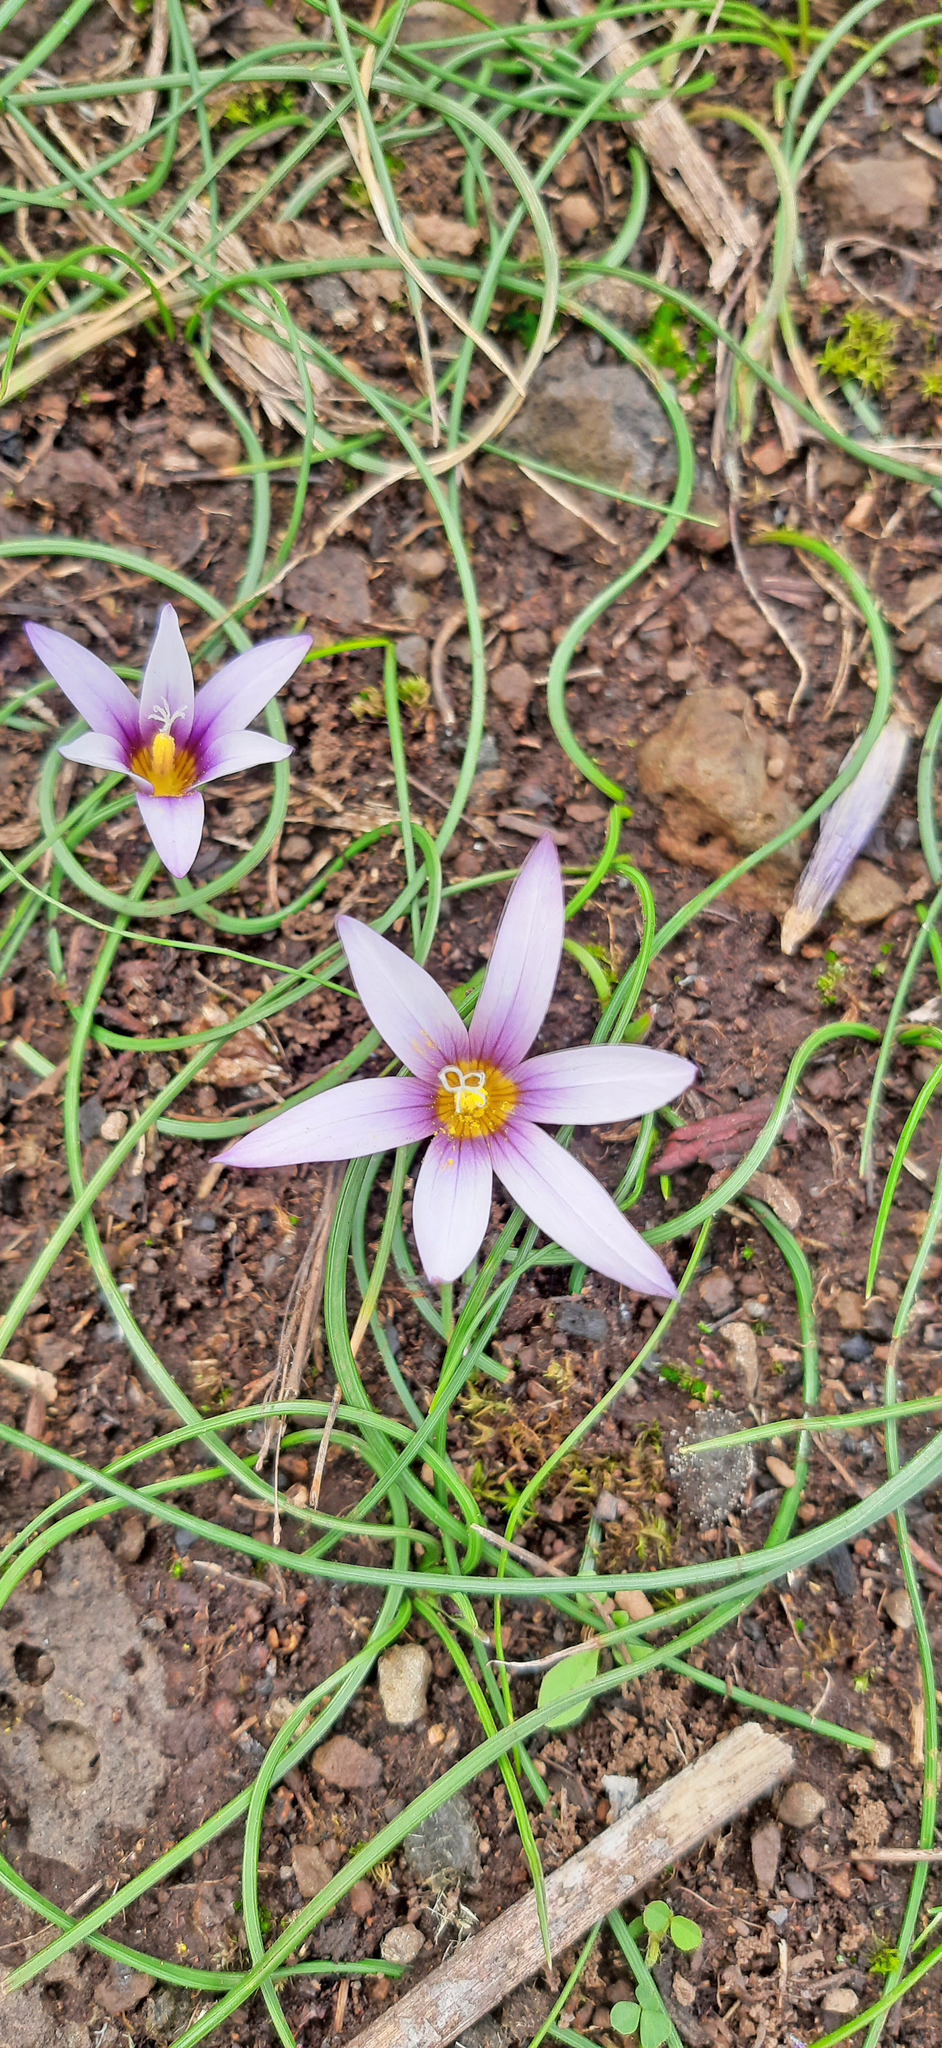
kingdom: Plantae
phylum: Tracheophyta
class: Liliopsida
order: Asparagales
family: Iridaceae
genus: Romulea
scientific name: Romulea columnae
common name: Sand-crocus
